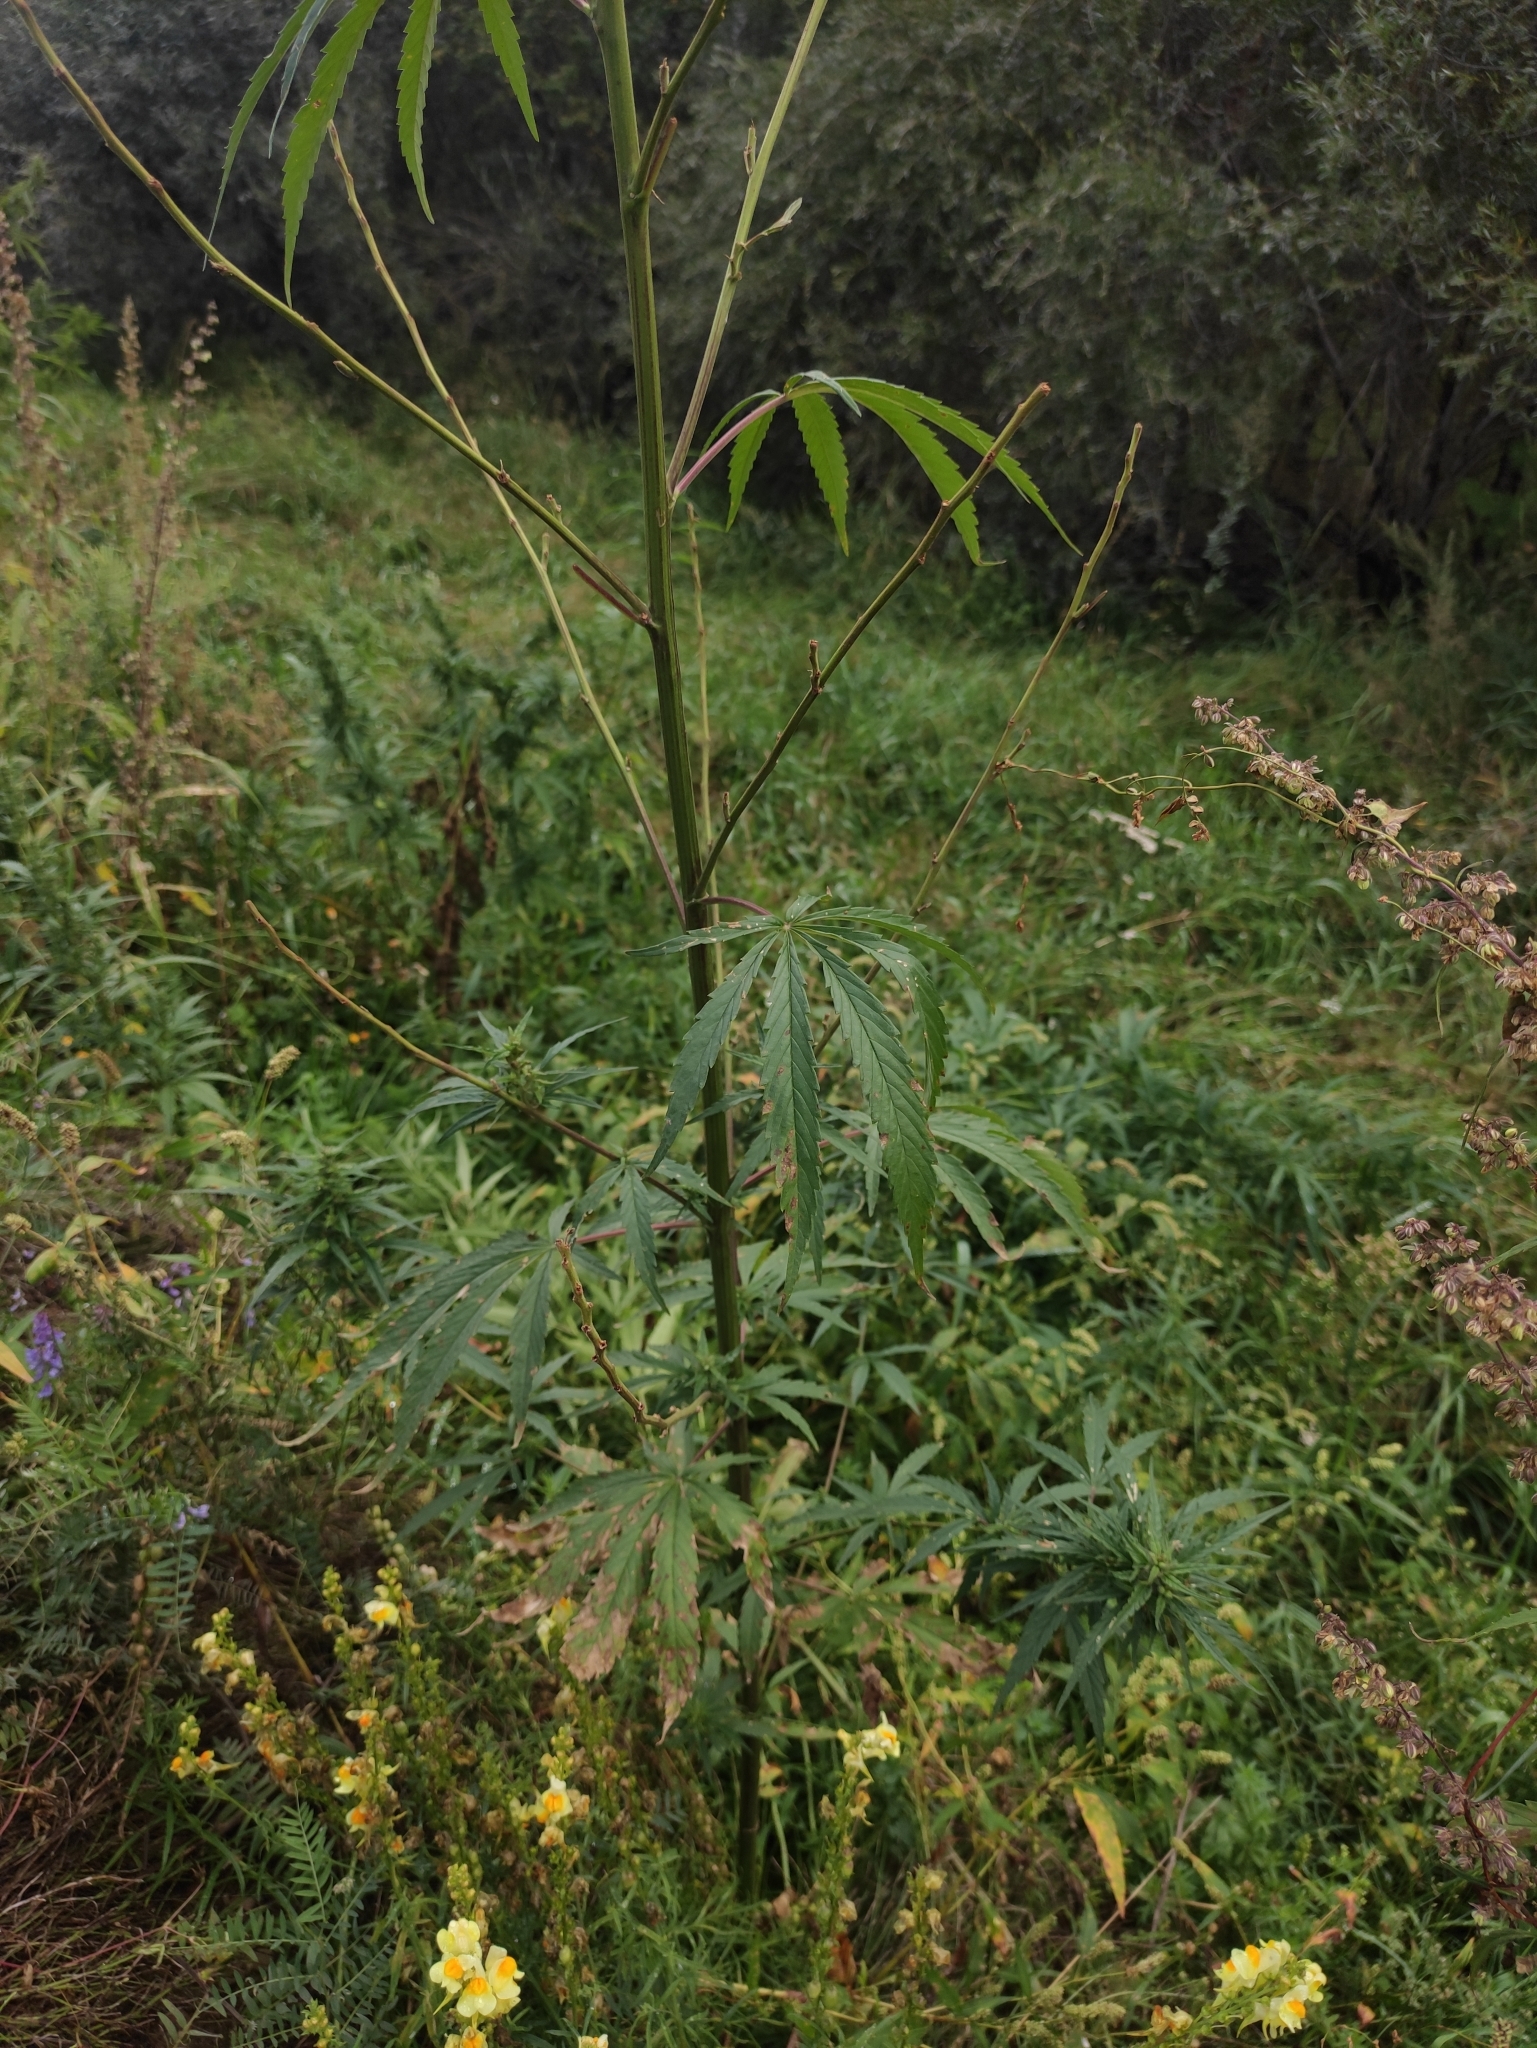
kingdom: Plantae
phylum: Tracheophyta
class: Magnoliopsida
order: Rosales
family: Cannabaceae
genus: Cannabis
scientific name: Cannabis sativa
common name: Hemp
